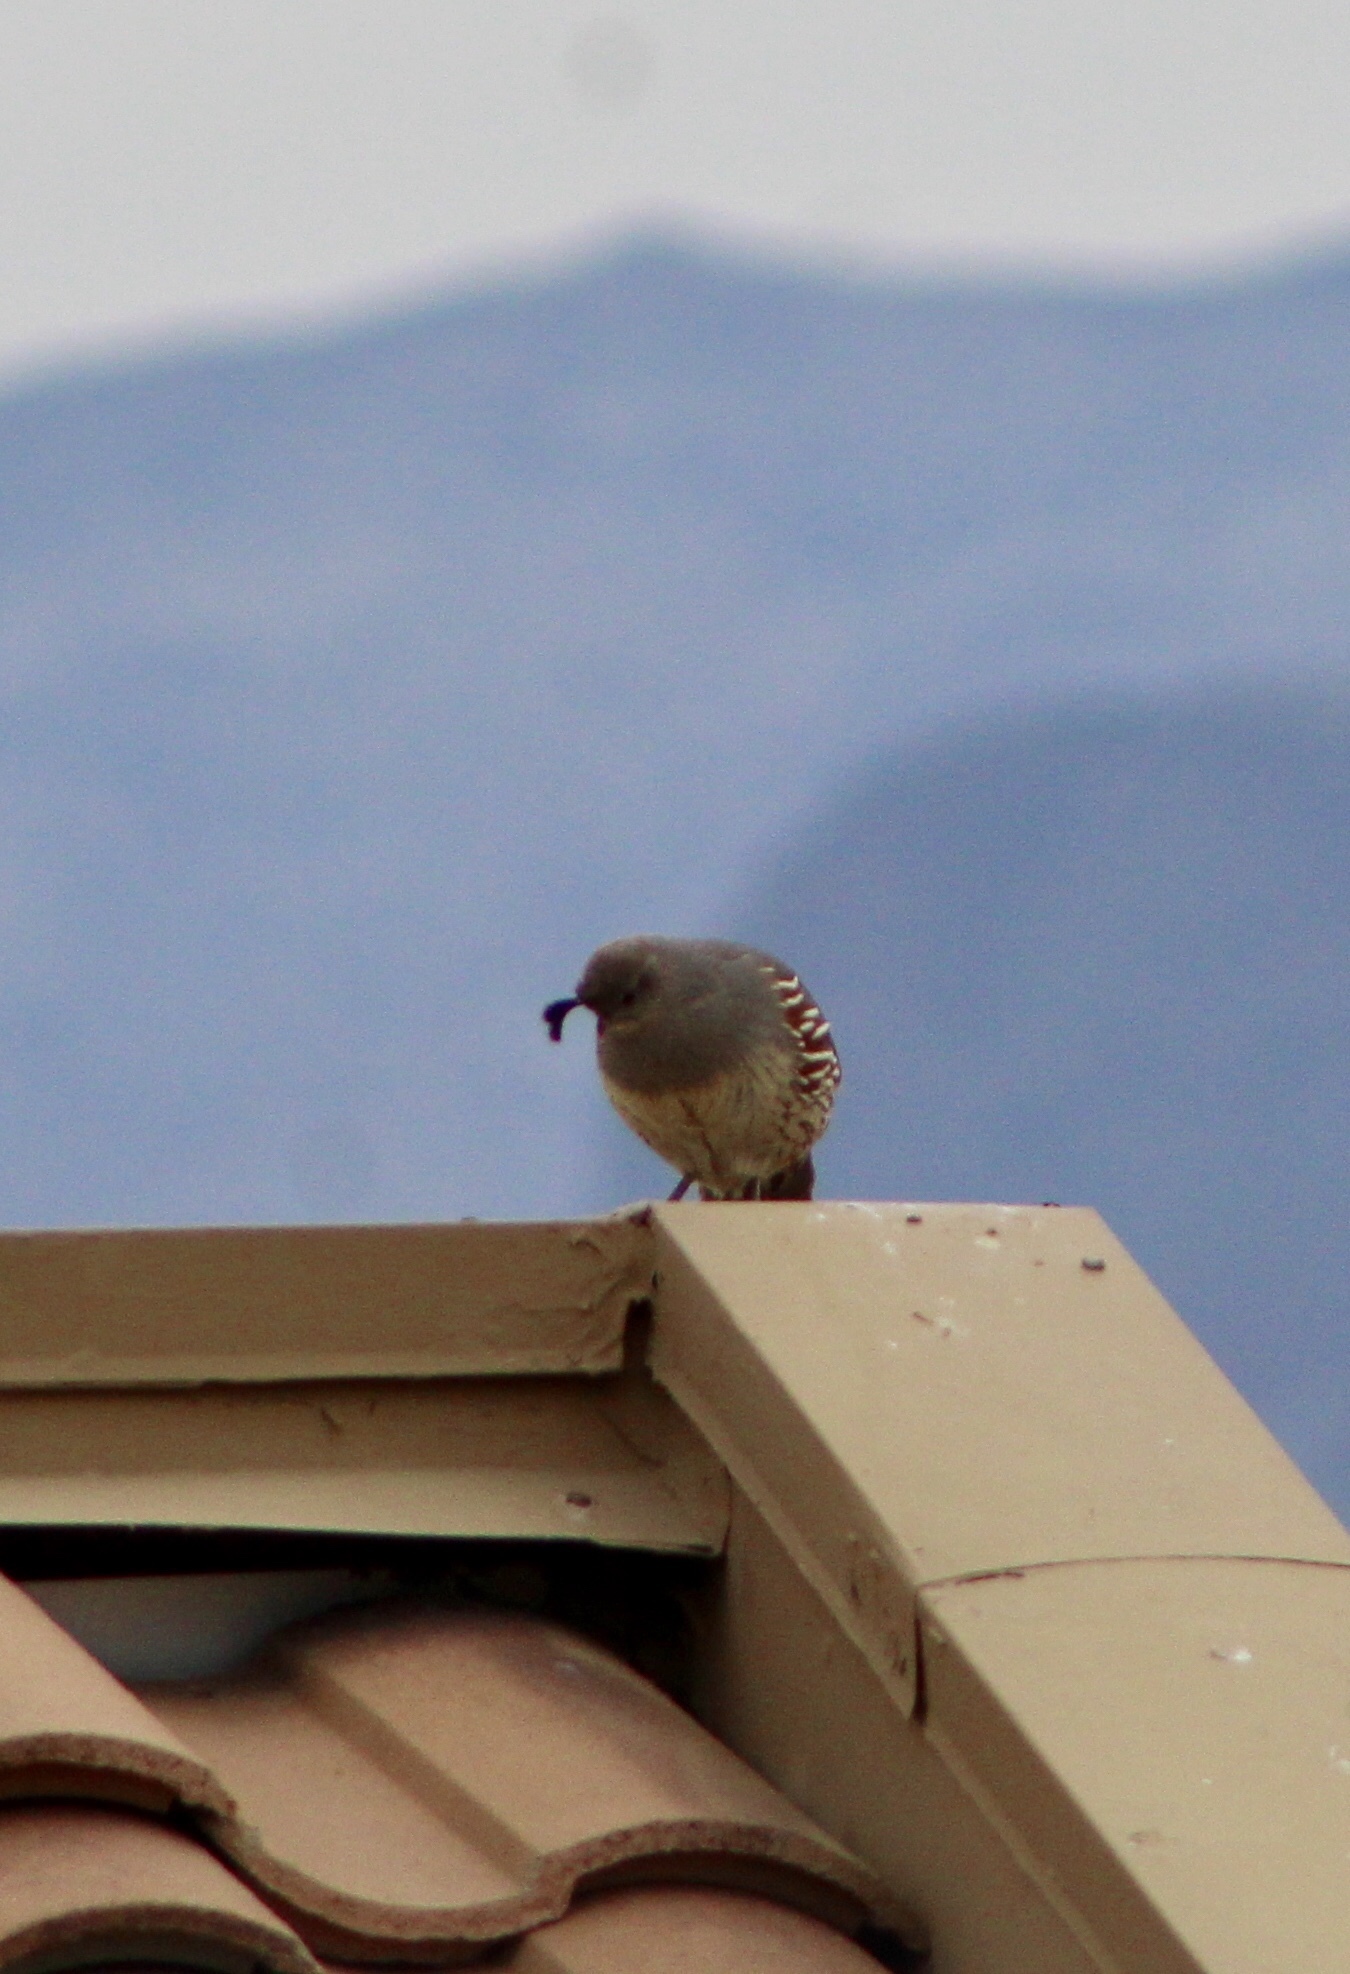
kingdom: Animalia
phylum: Chordata
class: Aves
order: Galliformes
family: Odontophoridae
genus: Callipepla
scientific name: Callipepla gambelii
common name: Gambel's quail
